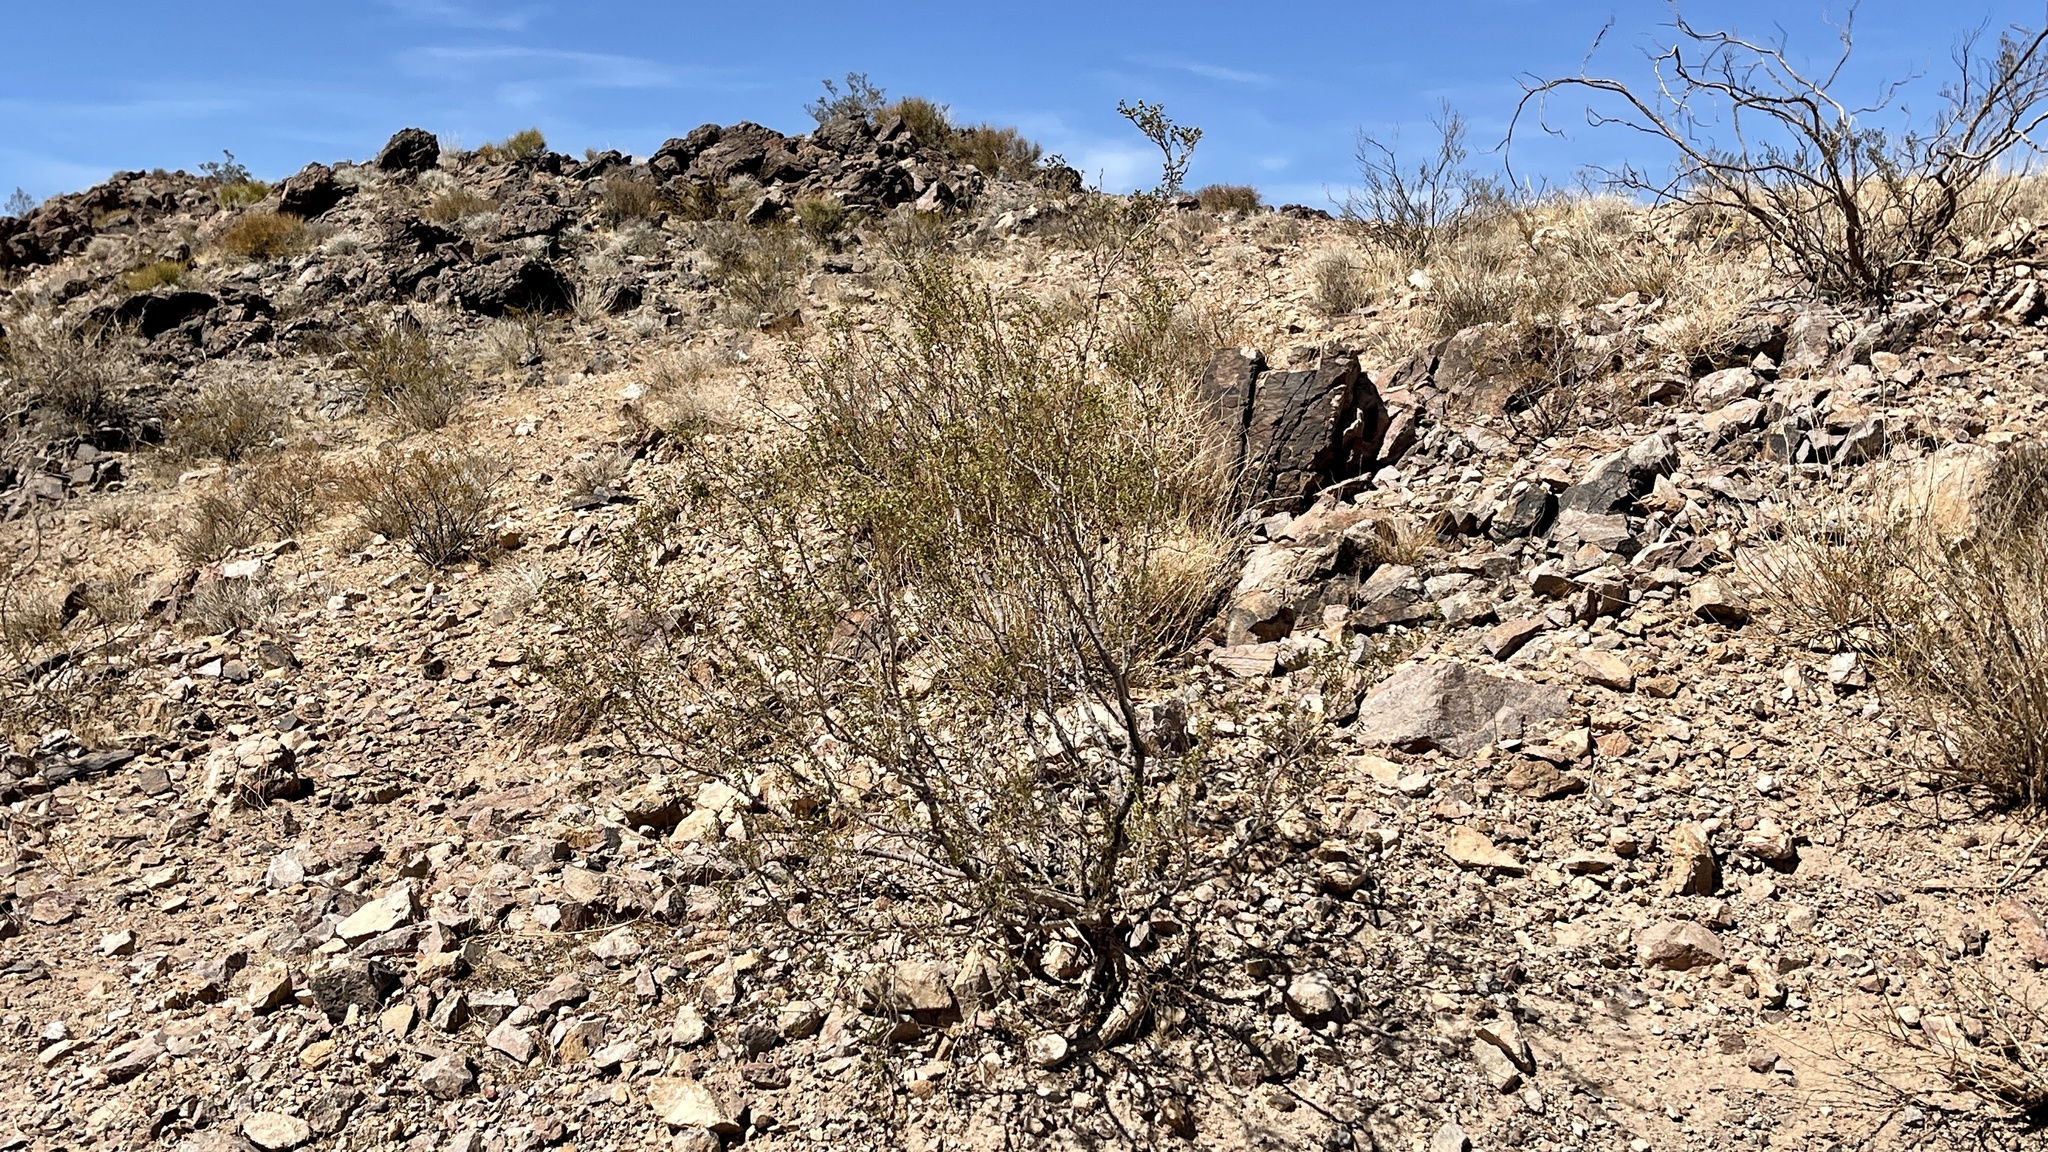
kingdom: Plantae
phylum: Tracheophyta
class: Magnoliopsida
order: Zygophyllales
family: Zygophyllaceae
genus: Larrea
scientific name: Larrea tridentata
